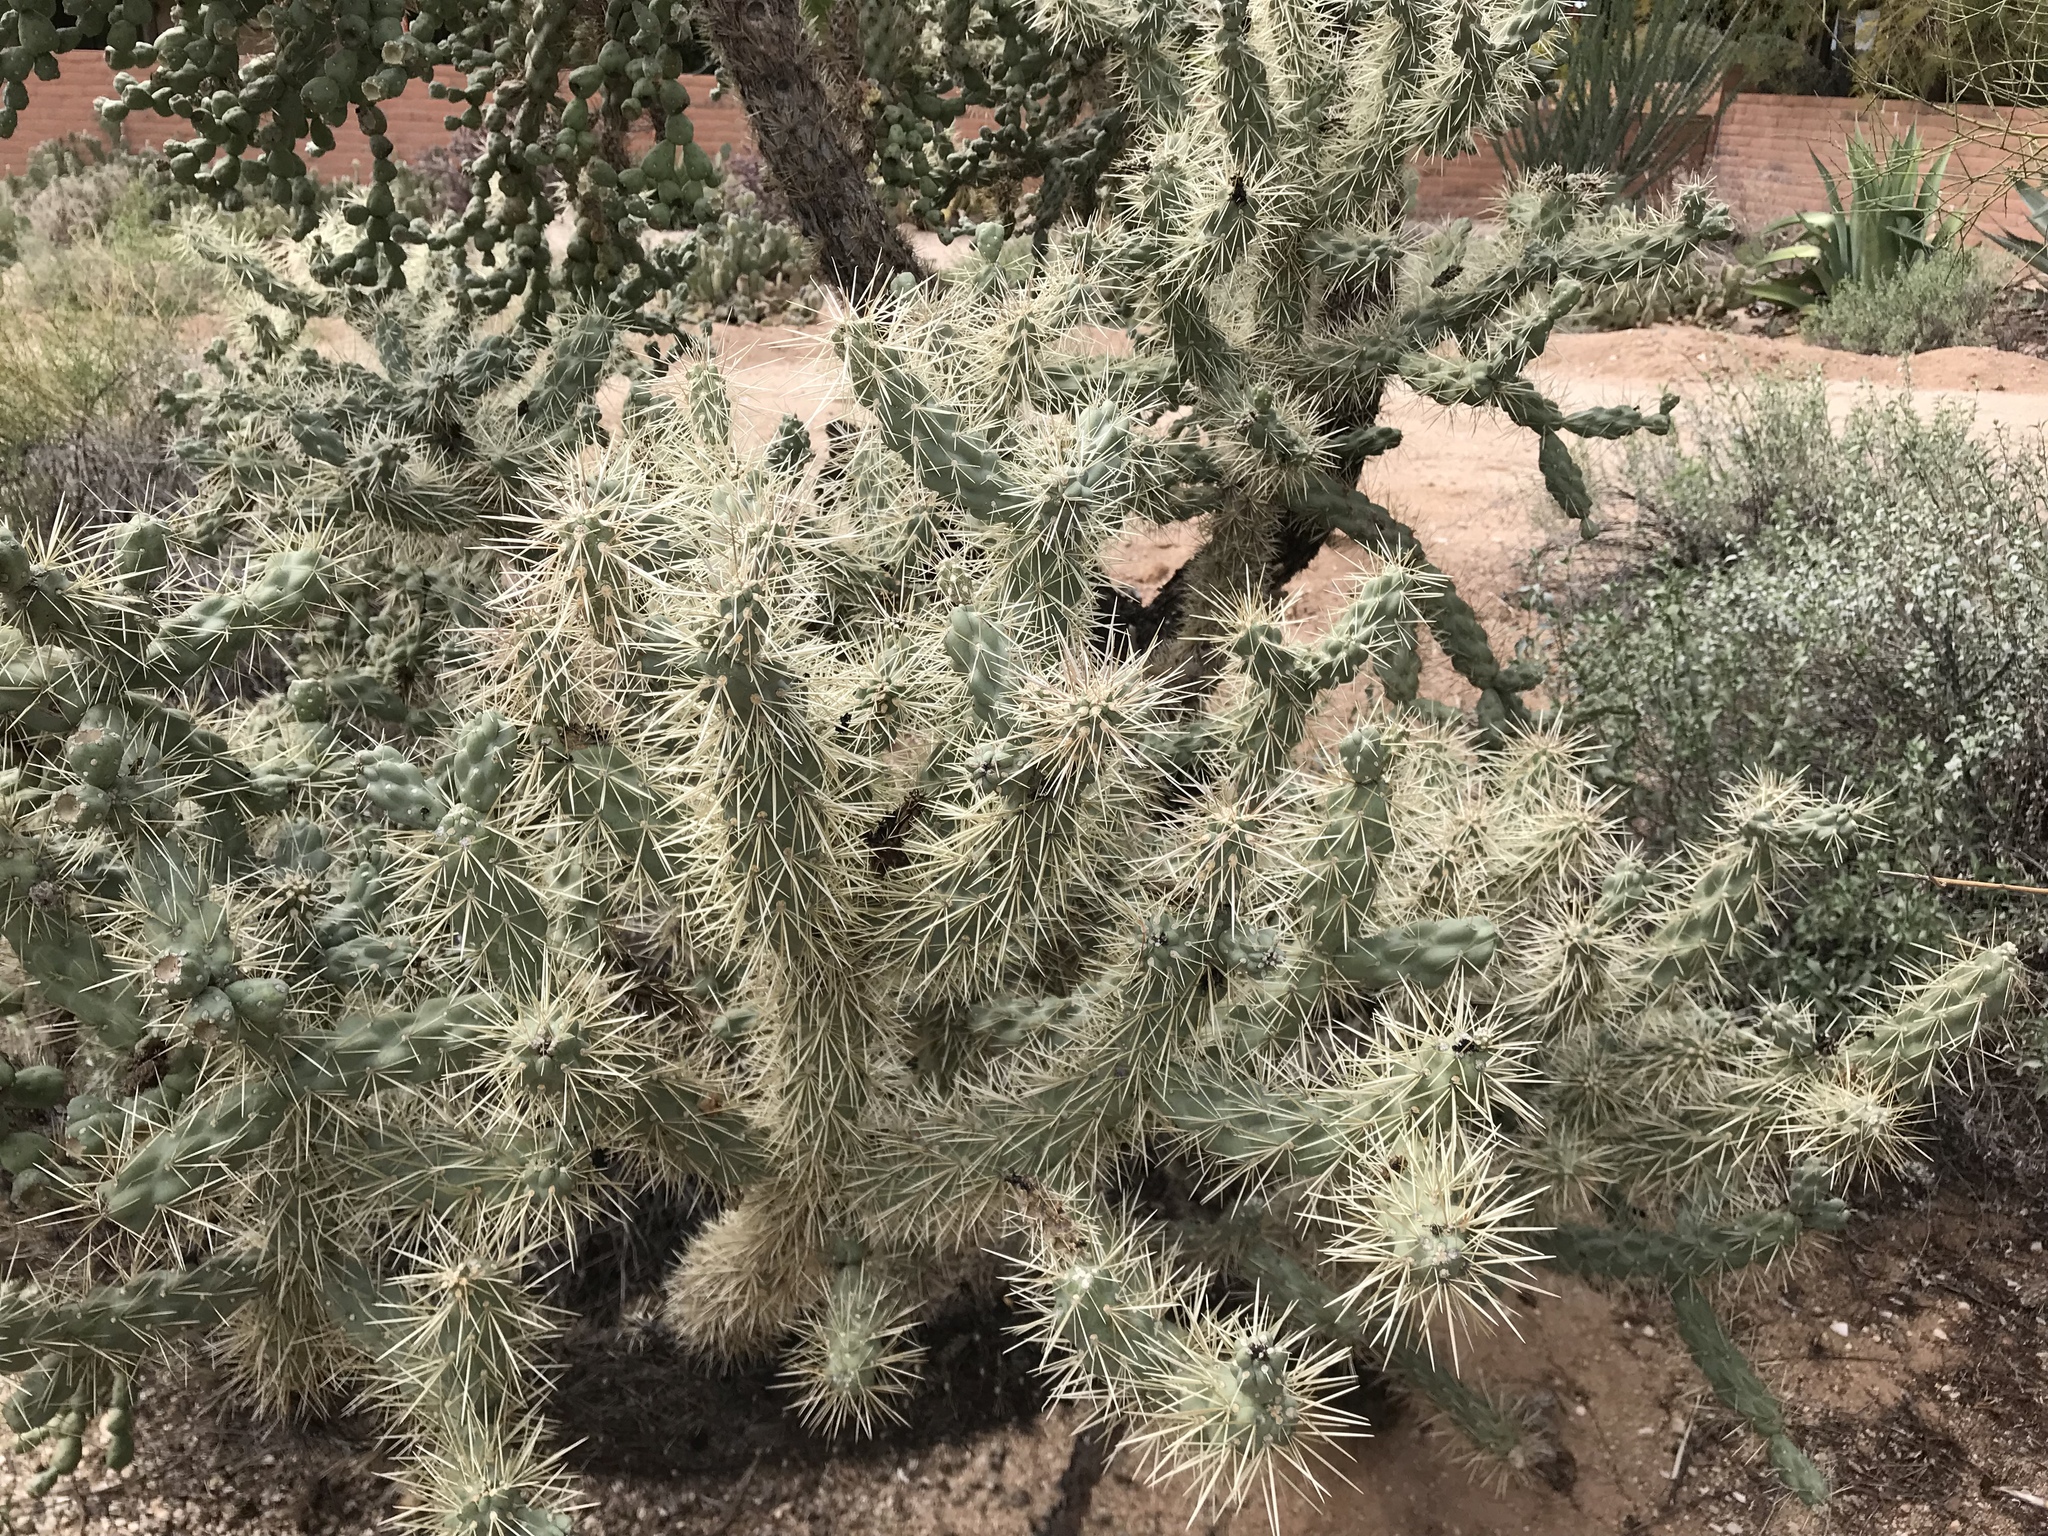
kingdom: Plantae
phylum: Tracheophyta
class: Magnoliopsida
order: Caryophyllales
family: Cactaceae
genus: Cylindropuntia
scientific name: Cylindropuntia fulgida
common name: Jumping cholla
